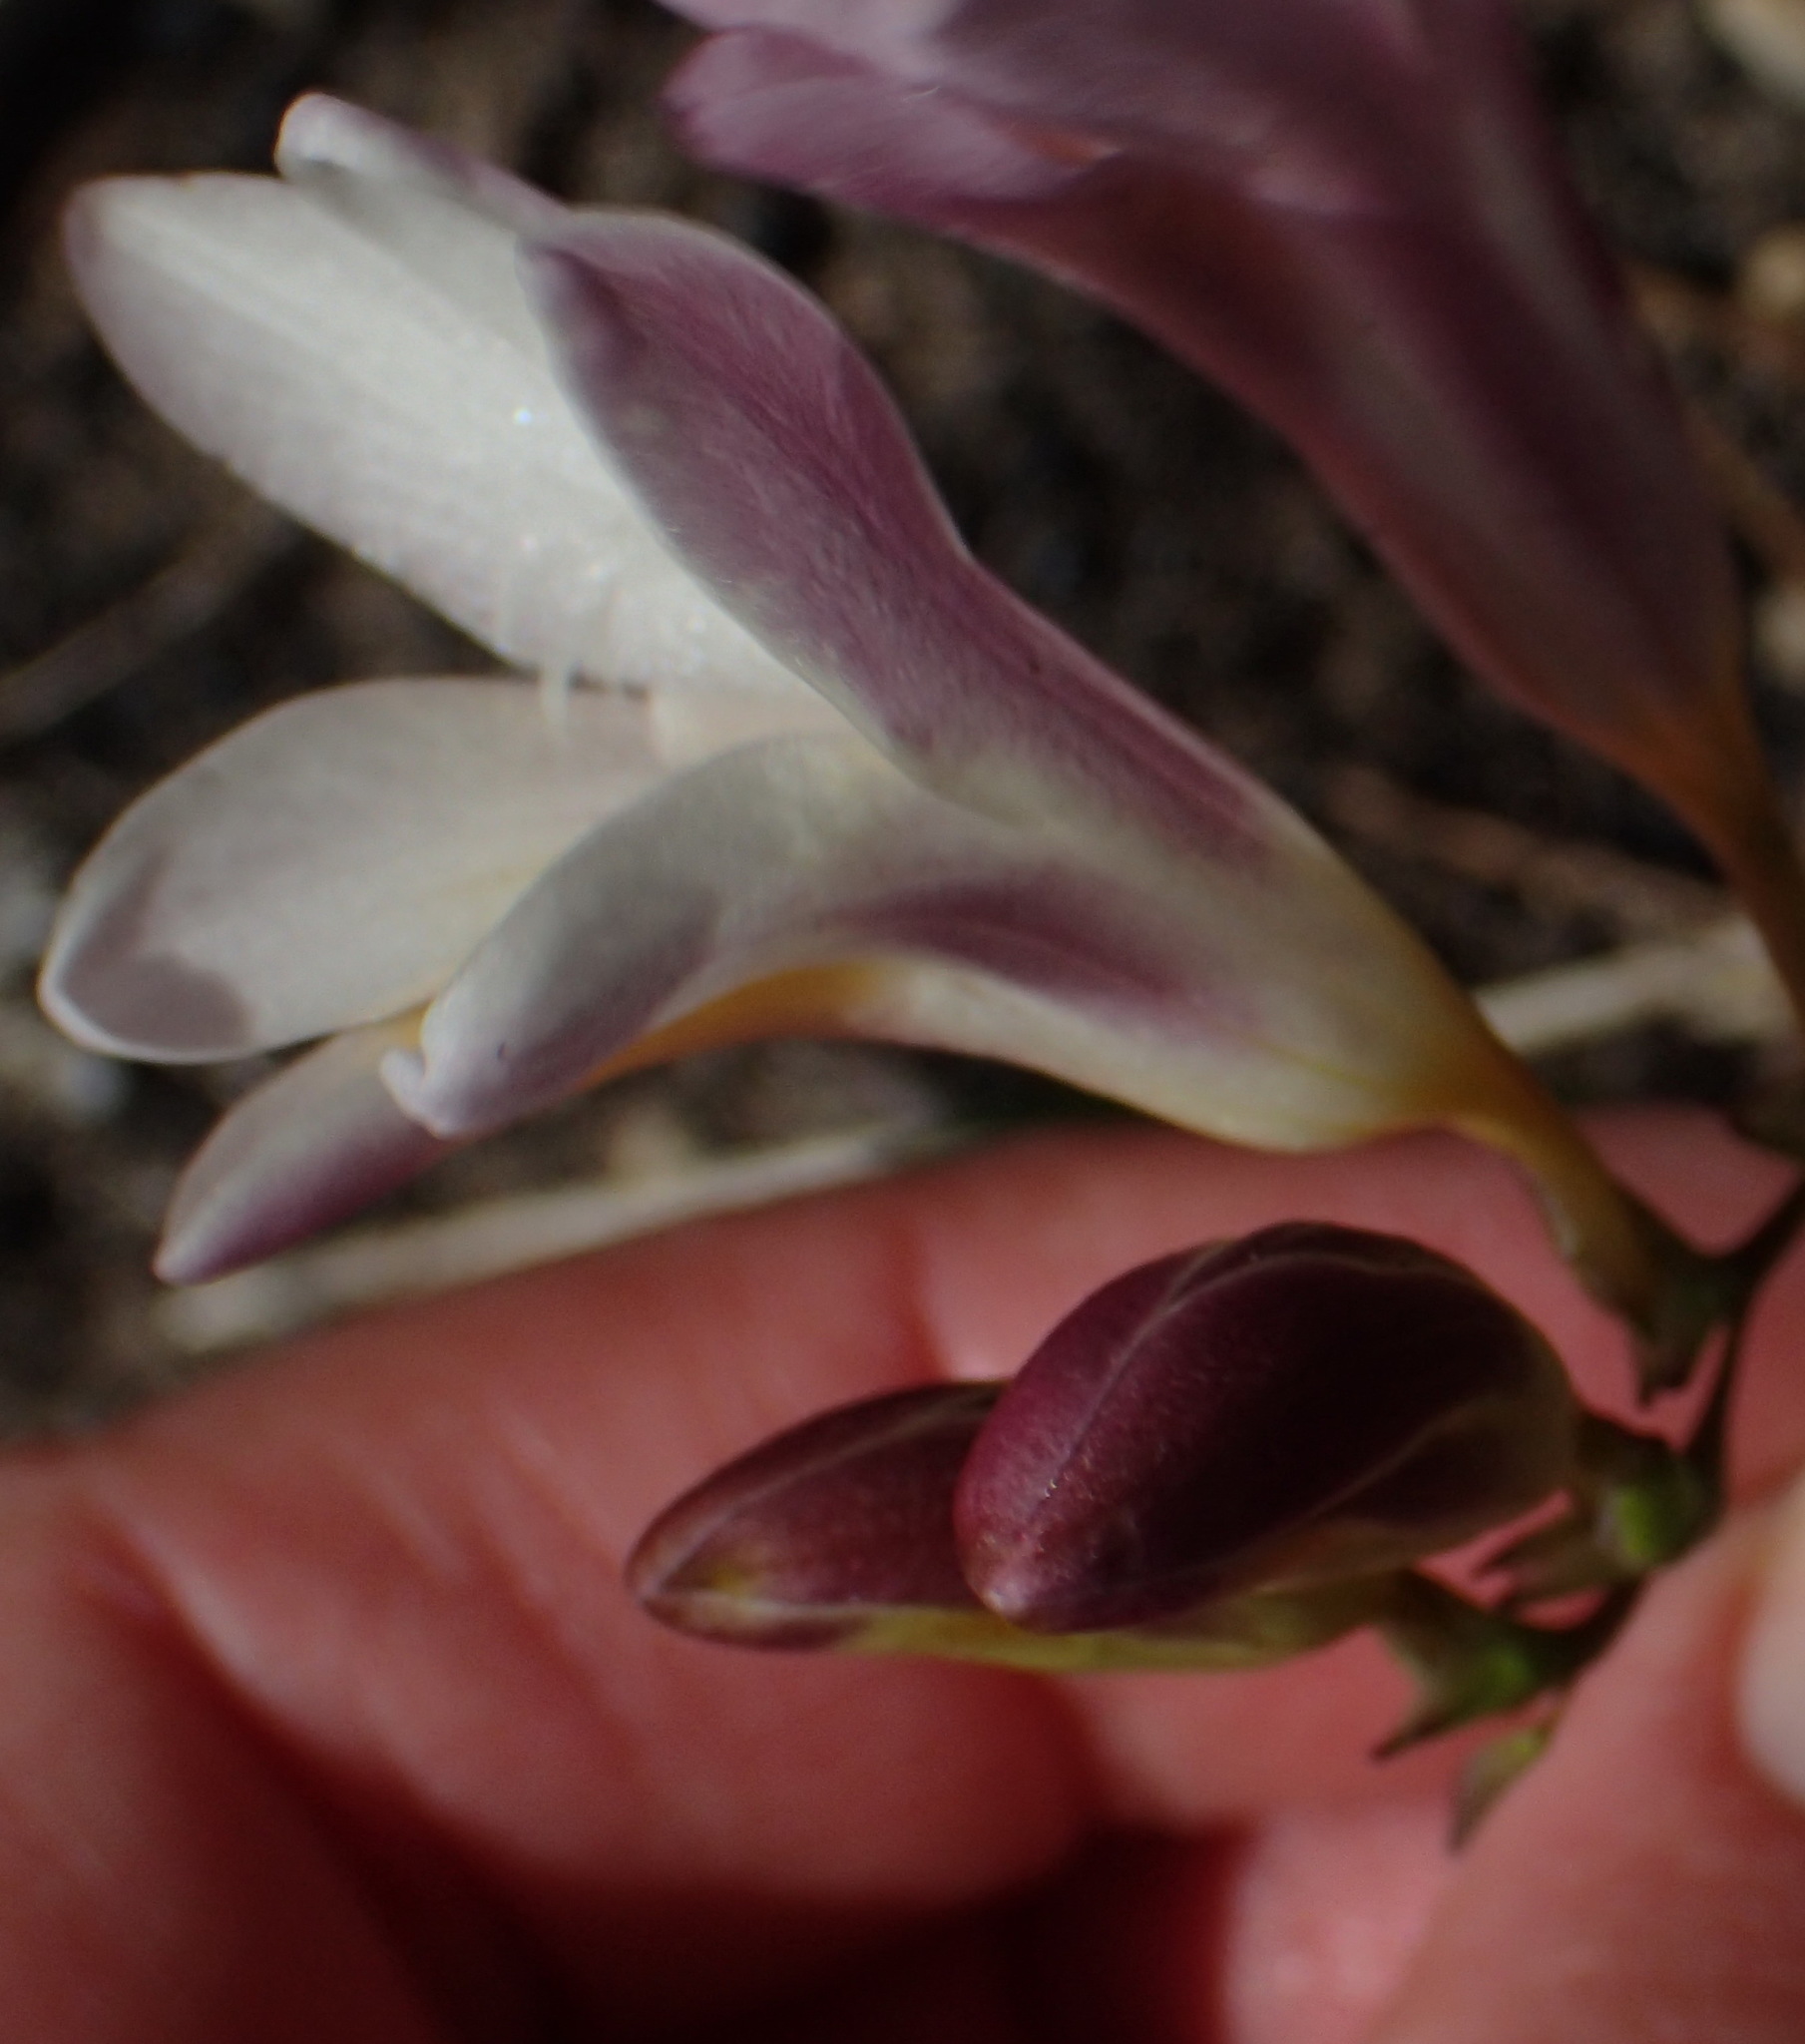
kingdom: Plantae
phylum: Tracheophyta
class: Liliopsida
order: Asparagales
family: Iridaceae
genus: Freesia
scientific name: Freesia leichtlinii
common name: Freesia
